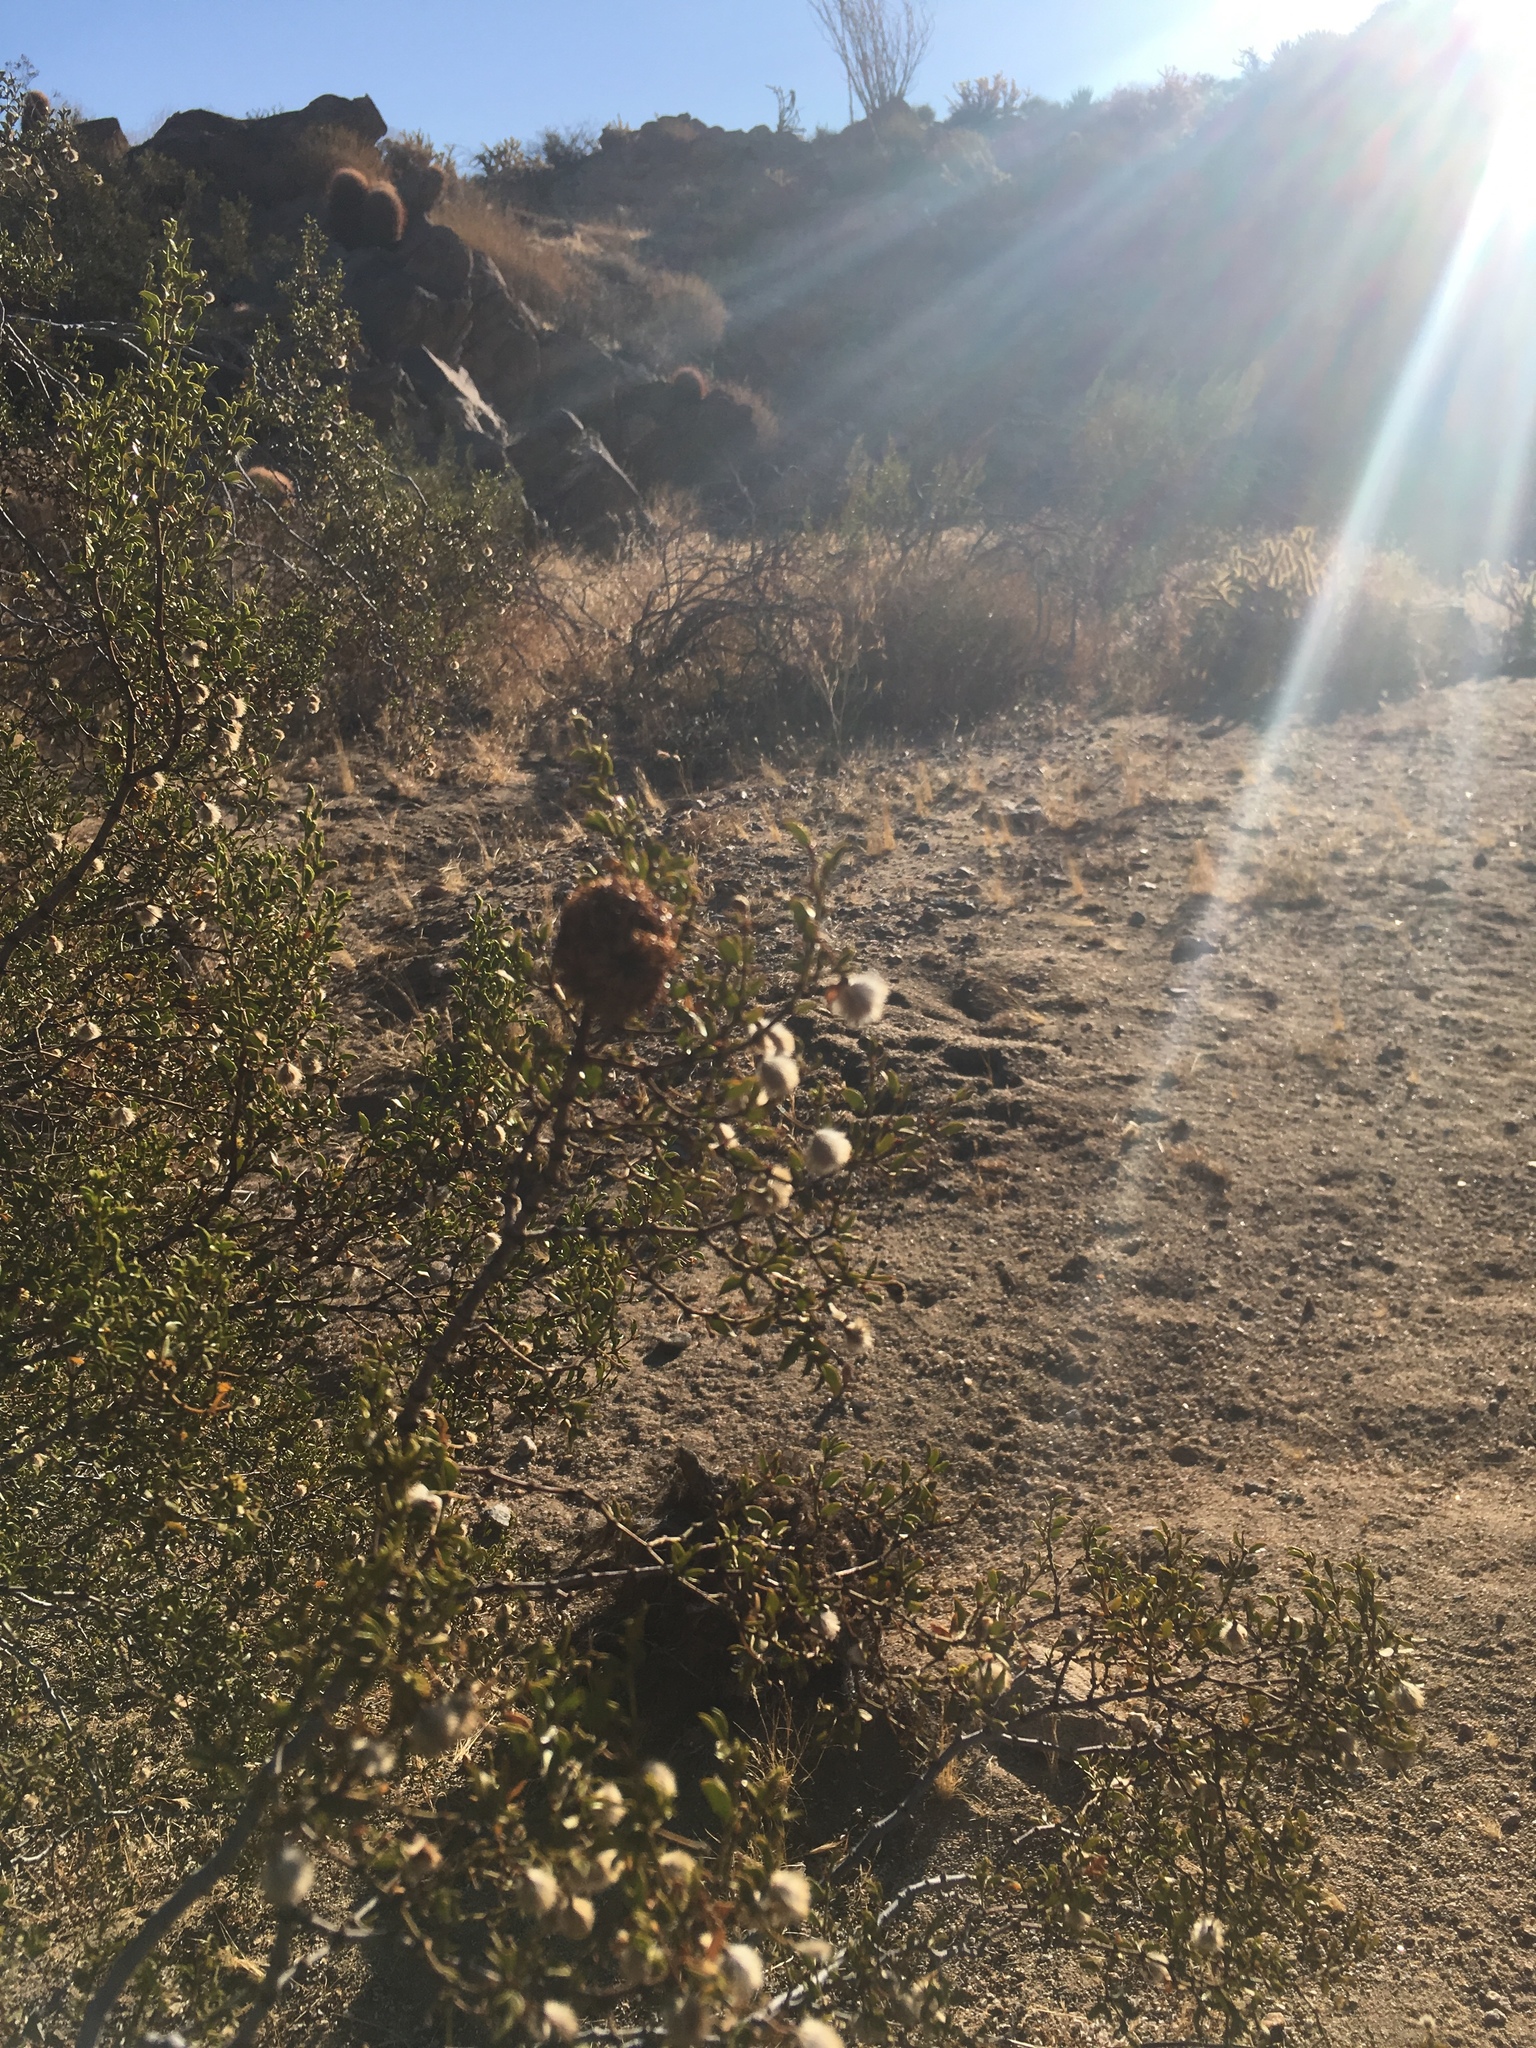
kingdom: Animalia
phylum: Arthropoda
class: Insecta
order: Diptera
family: Cecidomyiidae
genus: Asphondylia
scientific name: Asphondylia auripila
